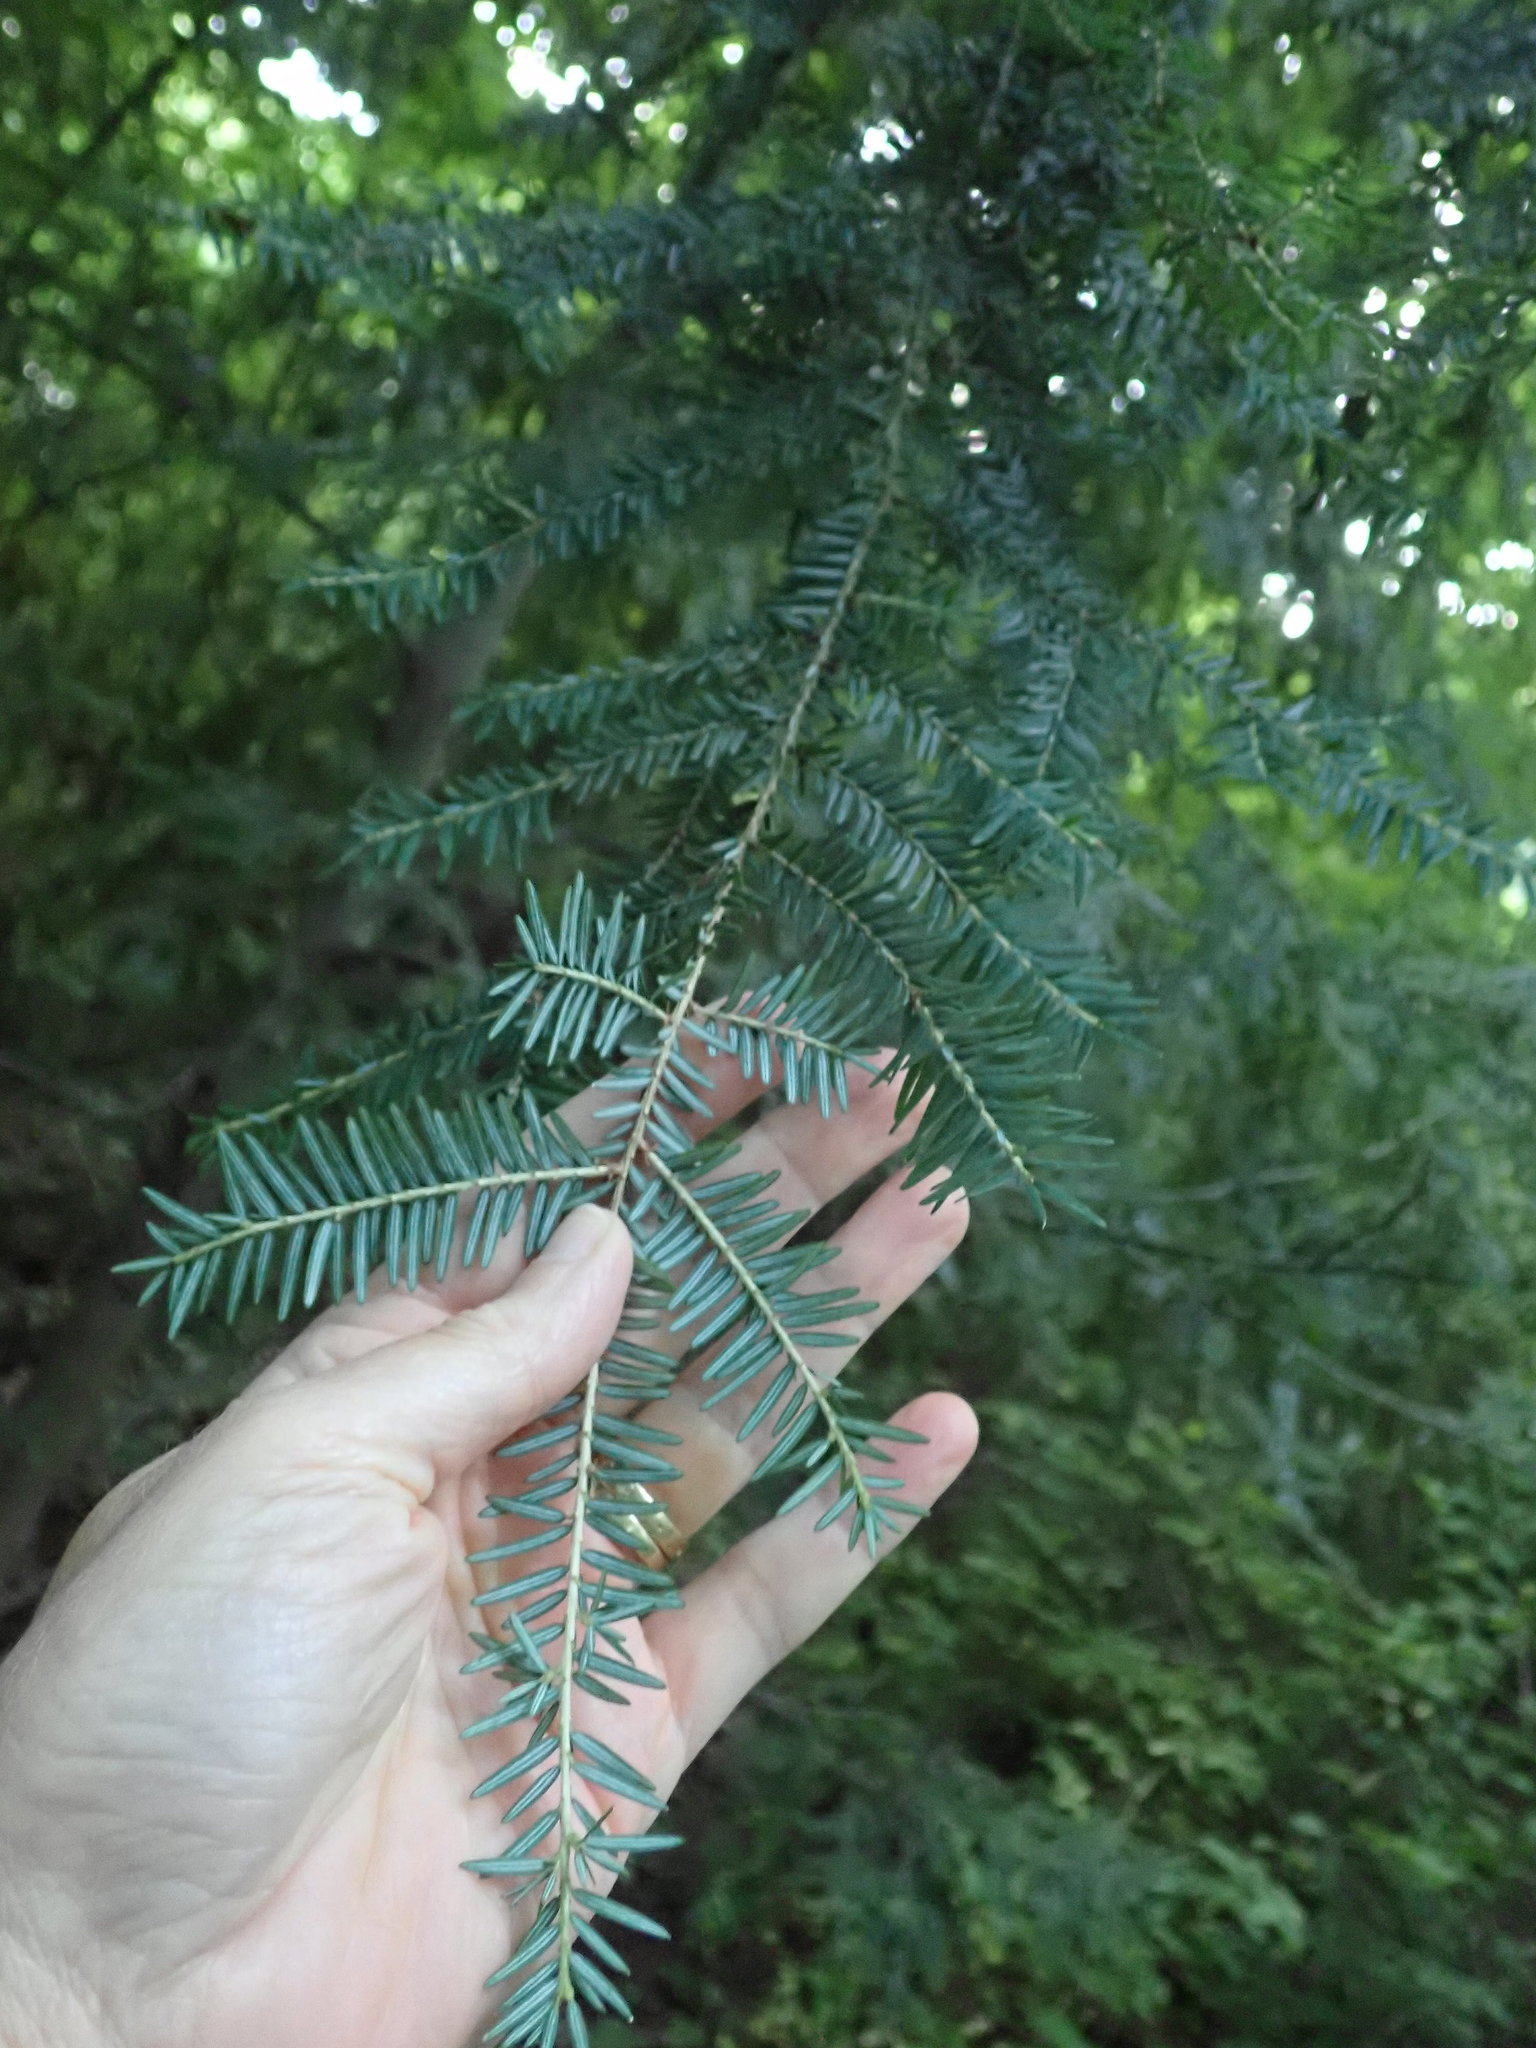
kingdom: Plantae
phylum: Tracheophyta
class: Pinopsida
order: Pinales
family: Pinaceae
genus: Tsuga
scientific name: Tsuga canadensis
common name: Eastern hemlock
